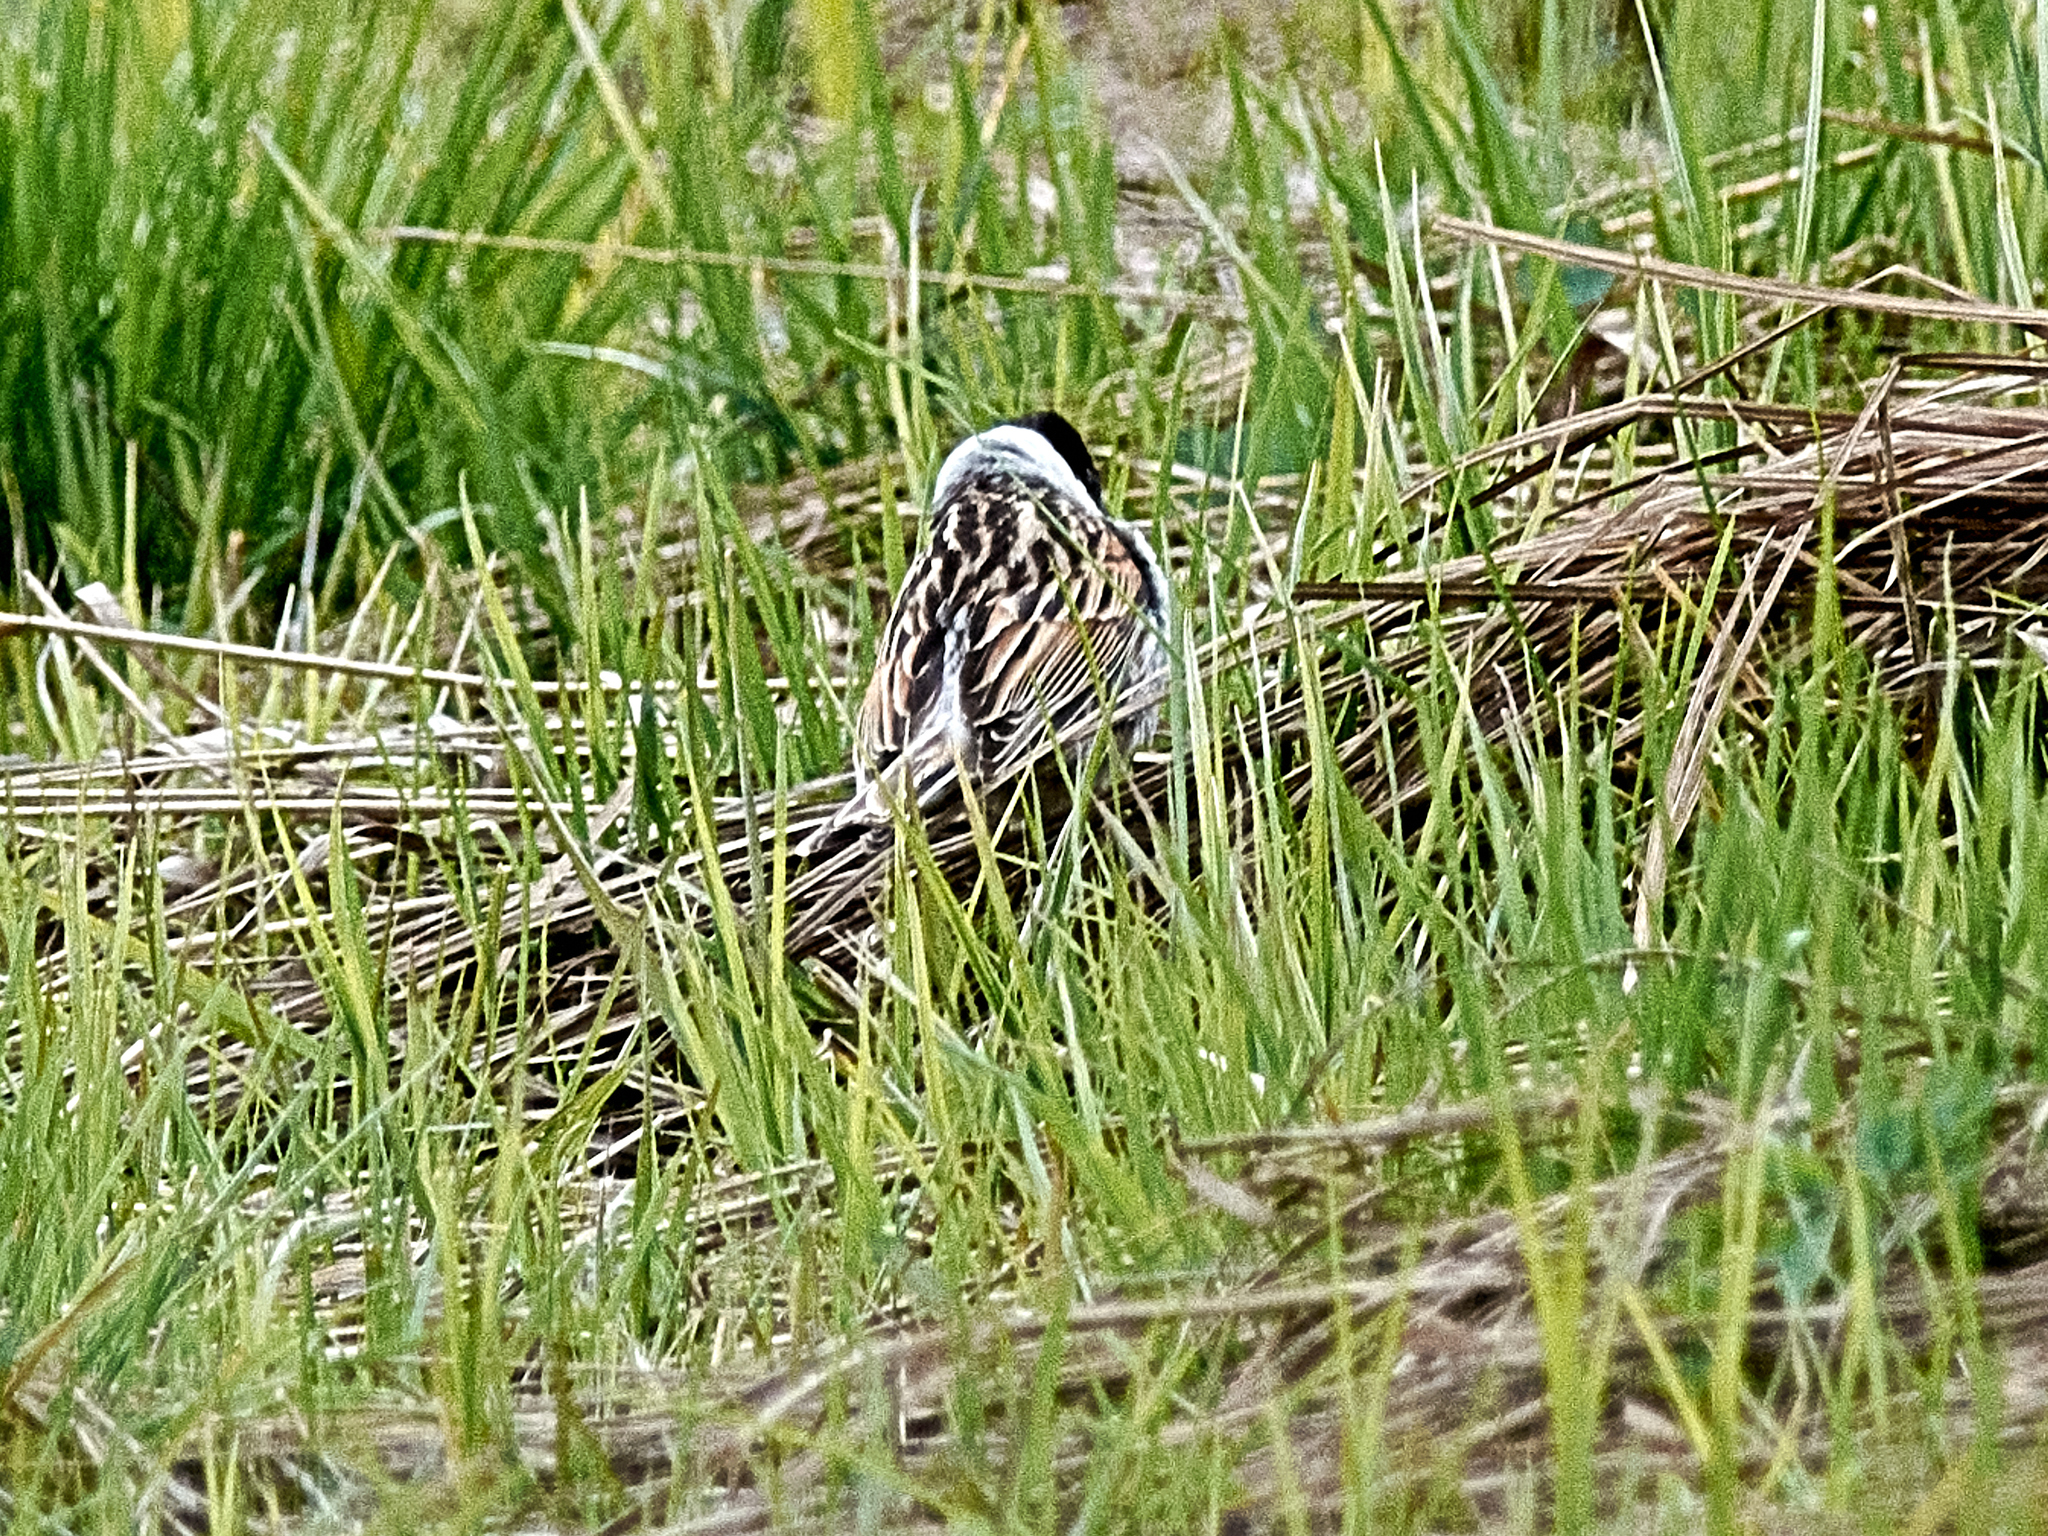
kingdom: Animalia
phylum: Chordata
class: Aves
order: Passeriformes
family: Emberizidae
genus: Emberiza
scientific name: Emberiza schoeniclus
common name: Reed bunting
